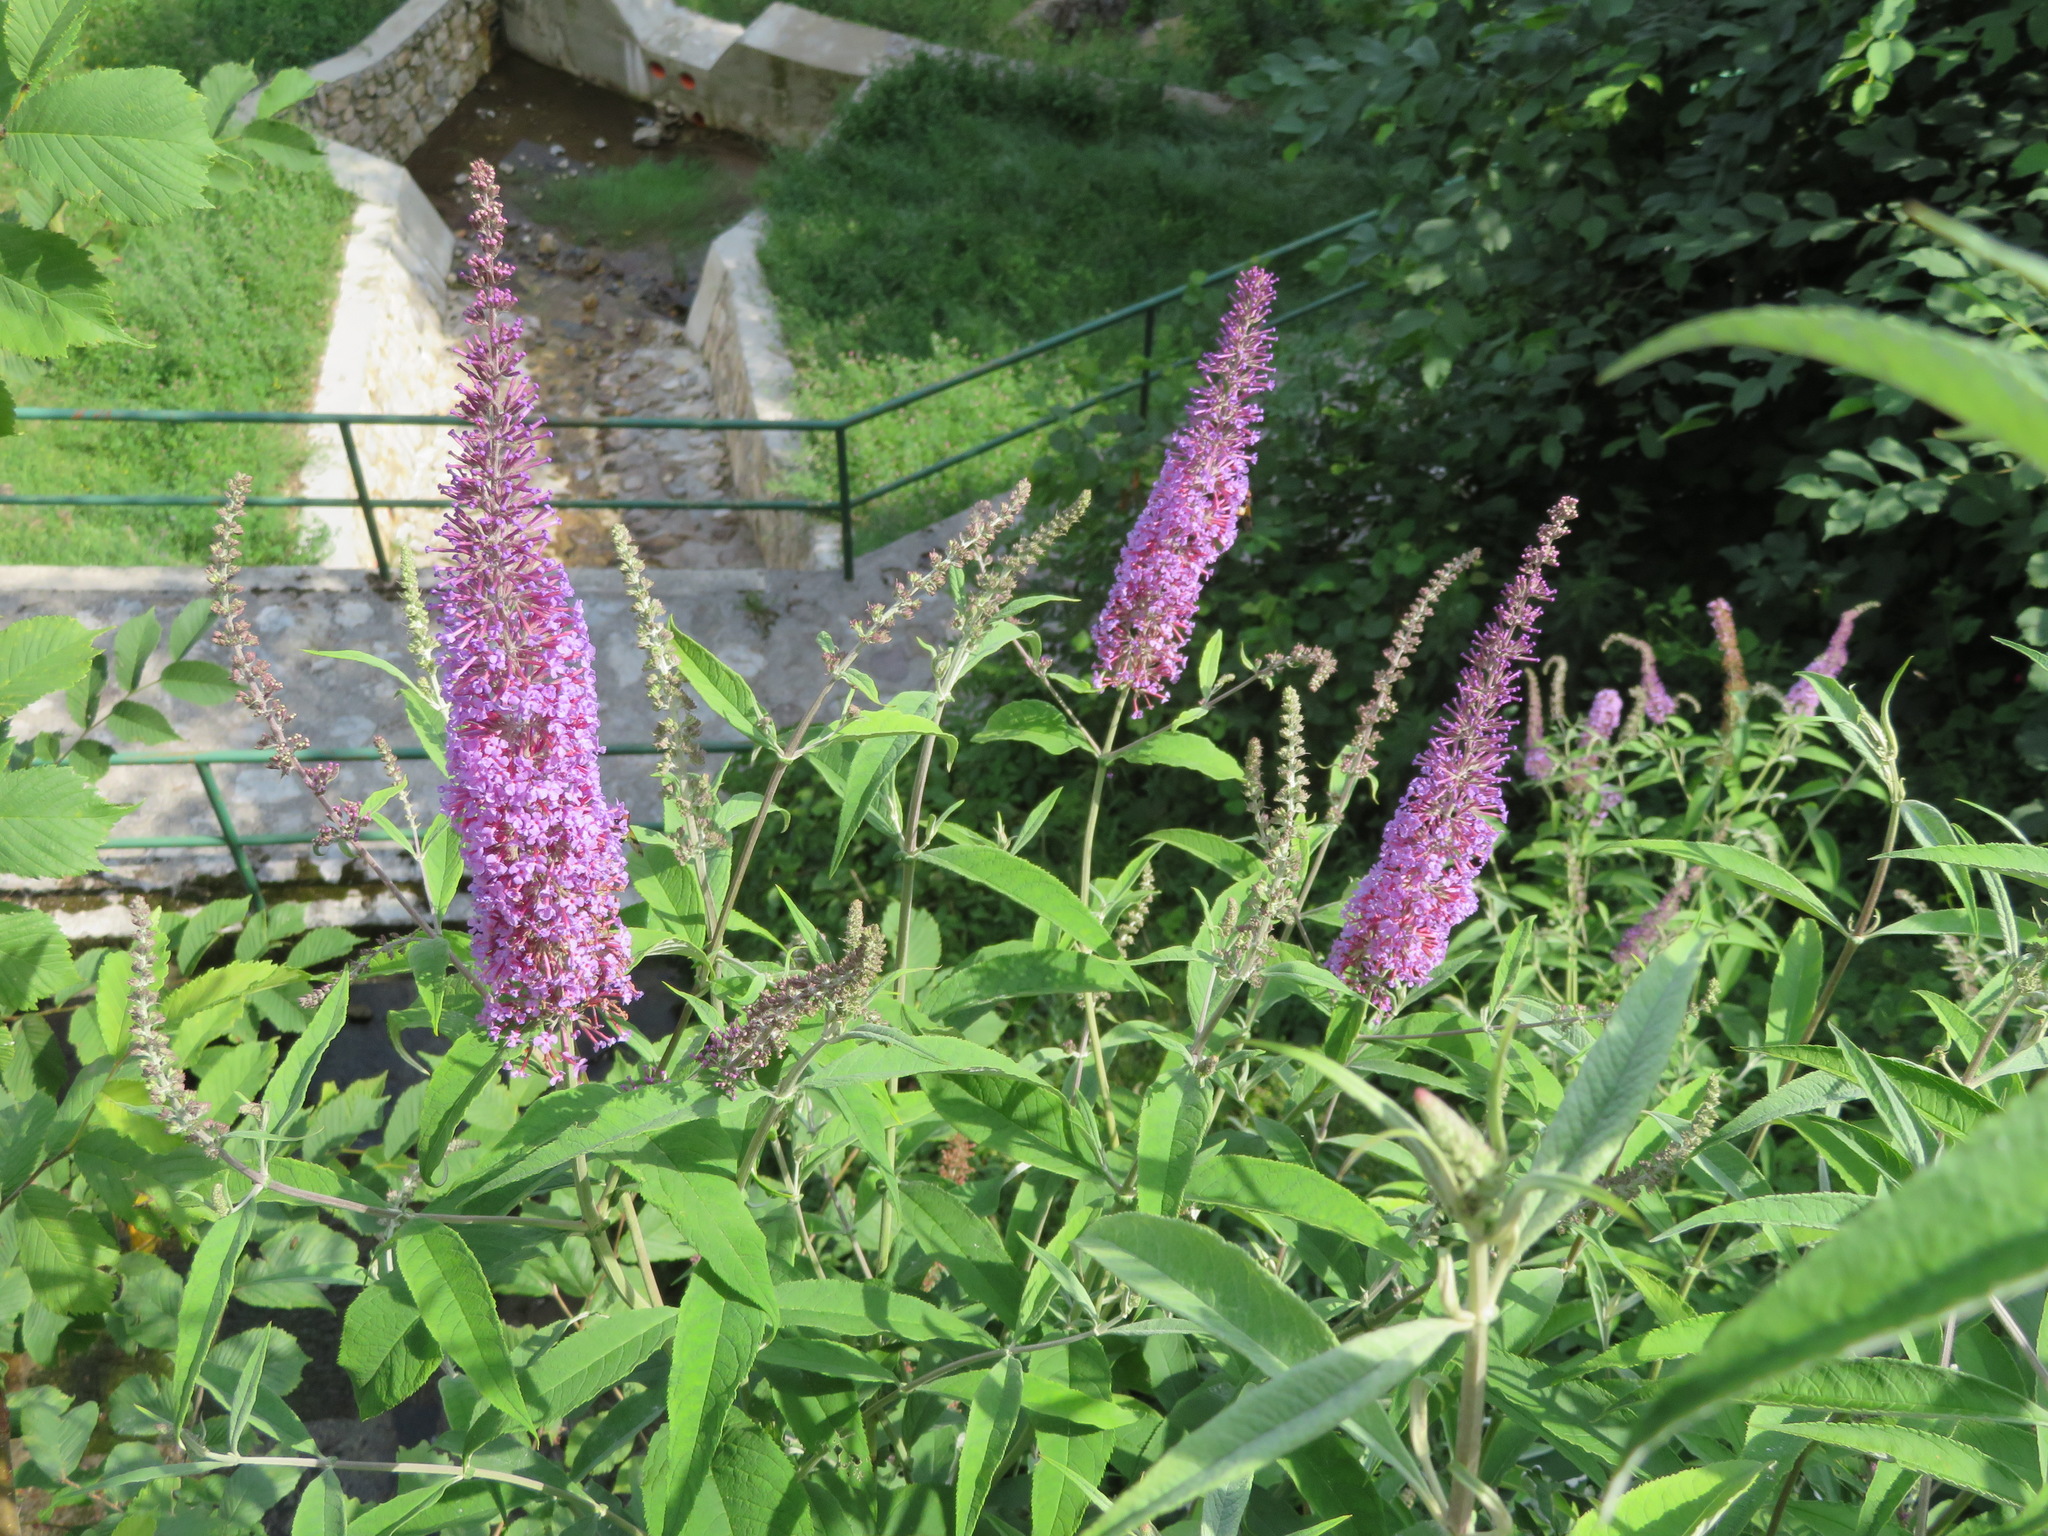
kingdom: Plantae
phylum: Tracheophyta
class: Magnoliopsida
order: Lamiales
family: Scrophulariaceae
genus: Buddleja
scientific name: Buddleja davidii
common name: Butterfly-bush
